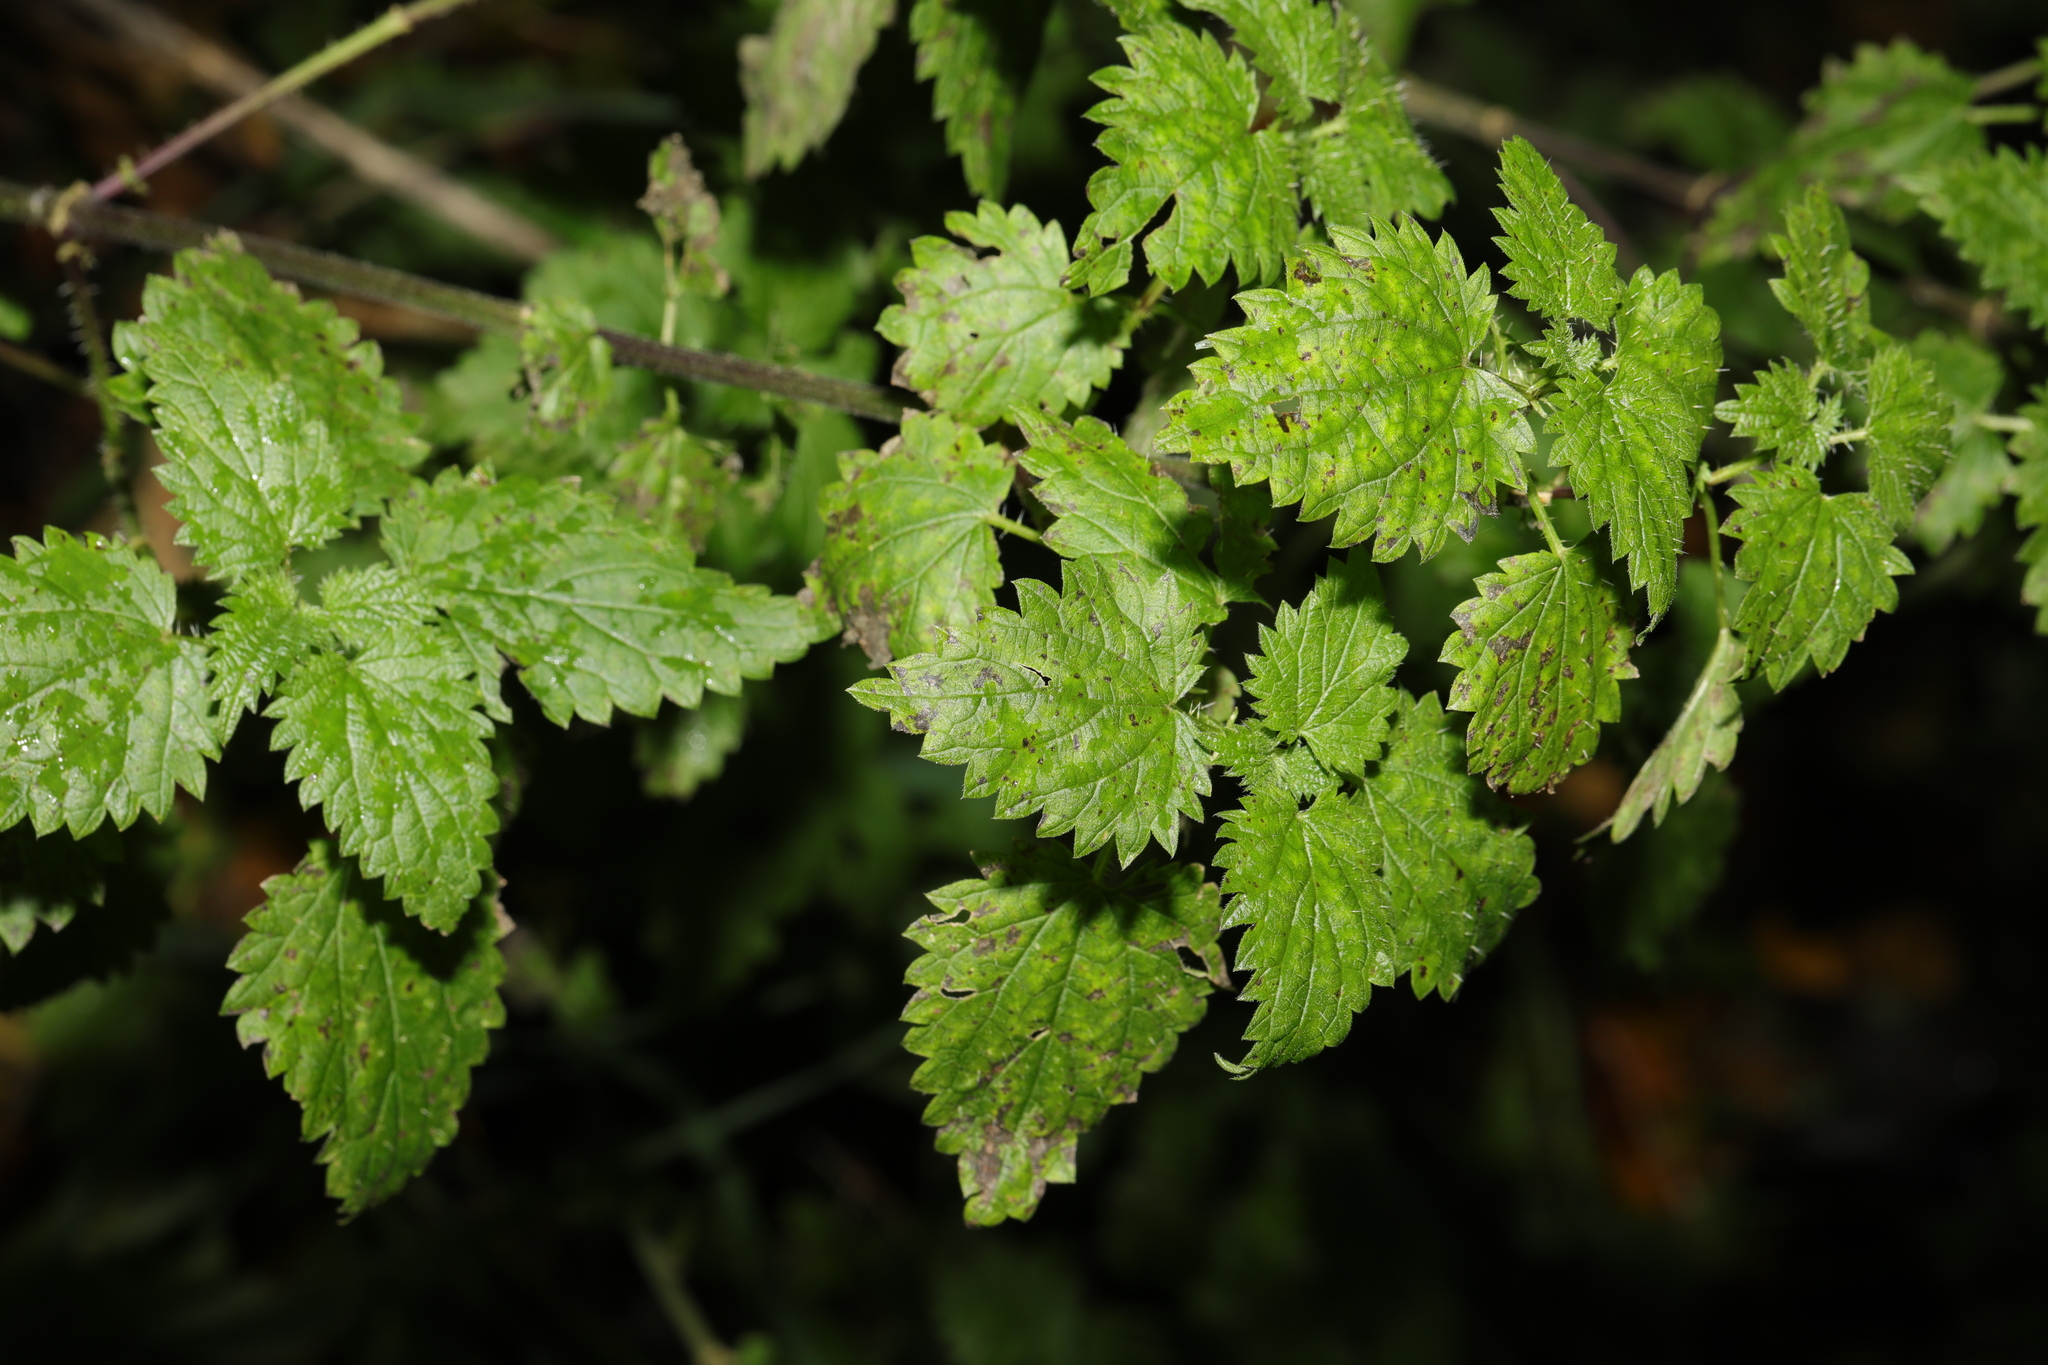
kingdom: Plantae
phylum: Tracheophyta
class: Magnoliopsida
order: Rosales
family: Urticaceae
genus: Urtica
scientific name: Urtica dioica
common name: Common nettle
